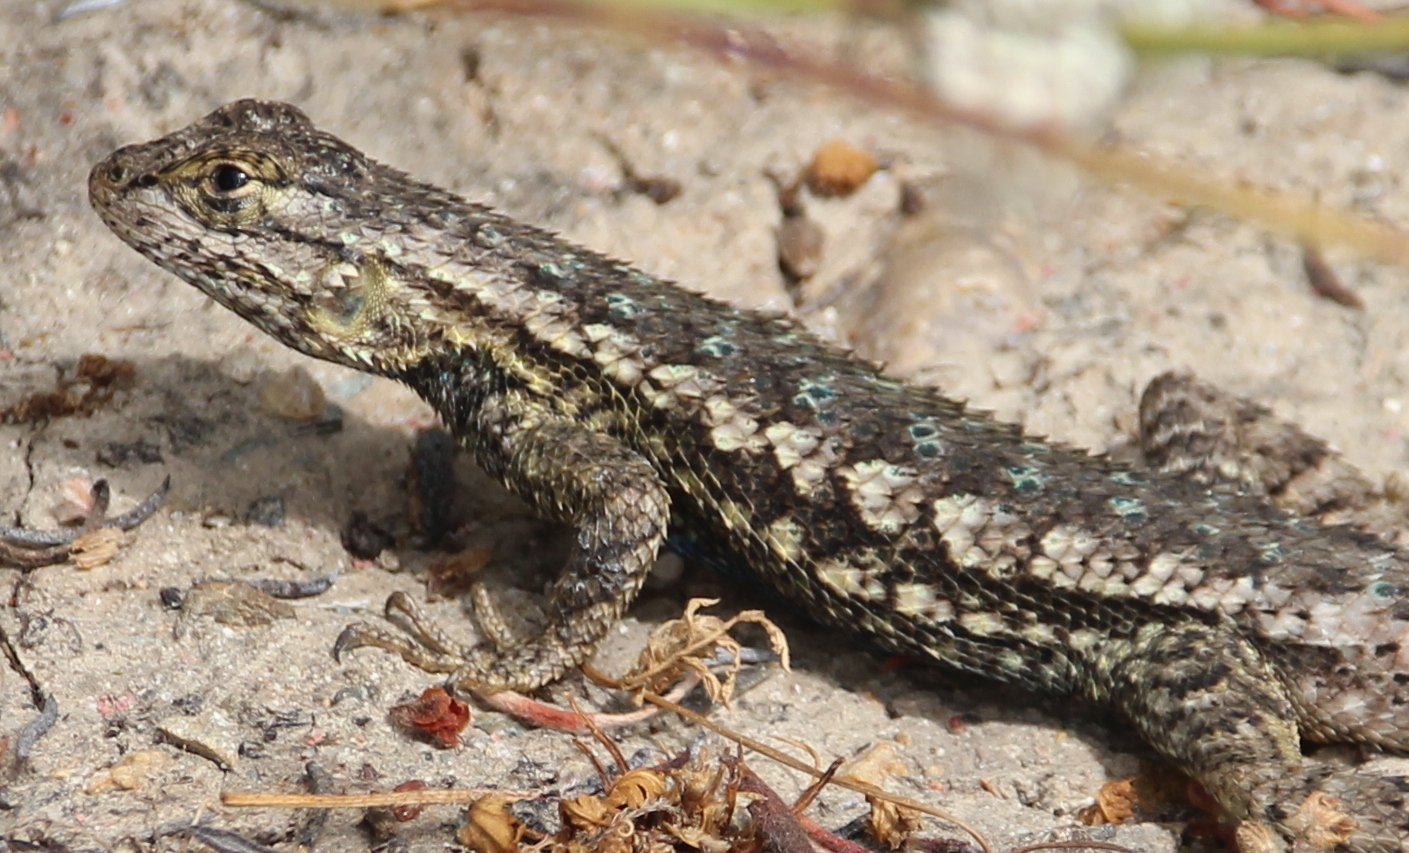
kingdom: Animalia
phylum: Chordata
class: Squamata
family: Phrynosomatidae
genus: Sceloporus
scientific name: Sceloporus occidentalis
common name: Western fence lizard
